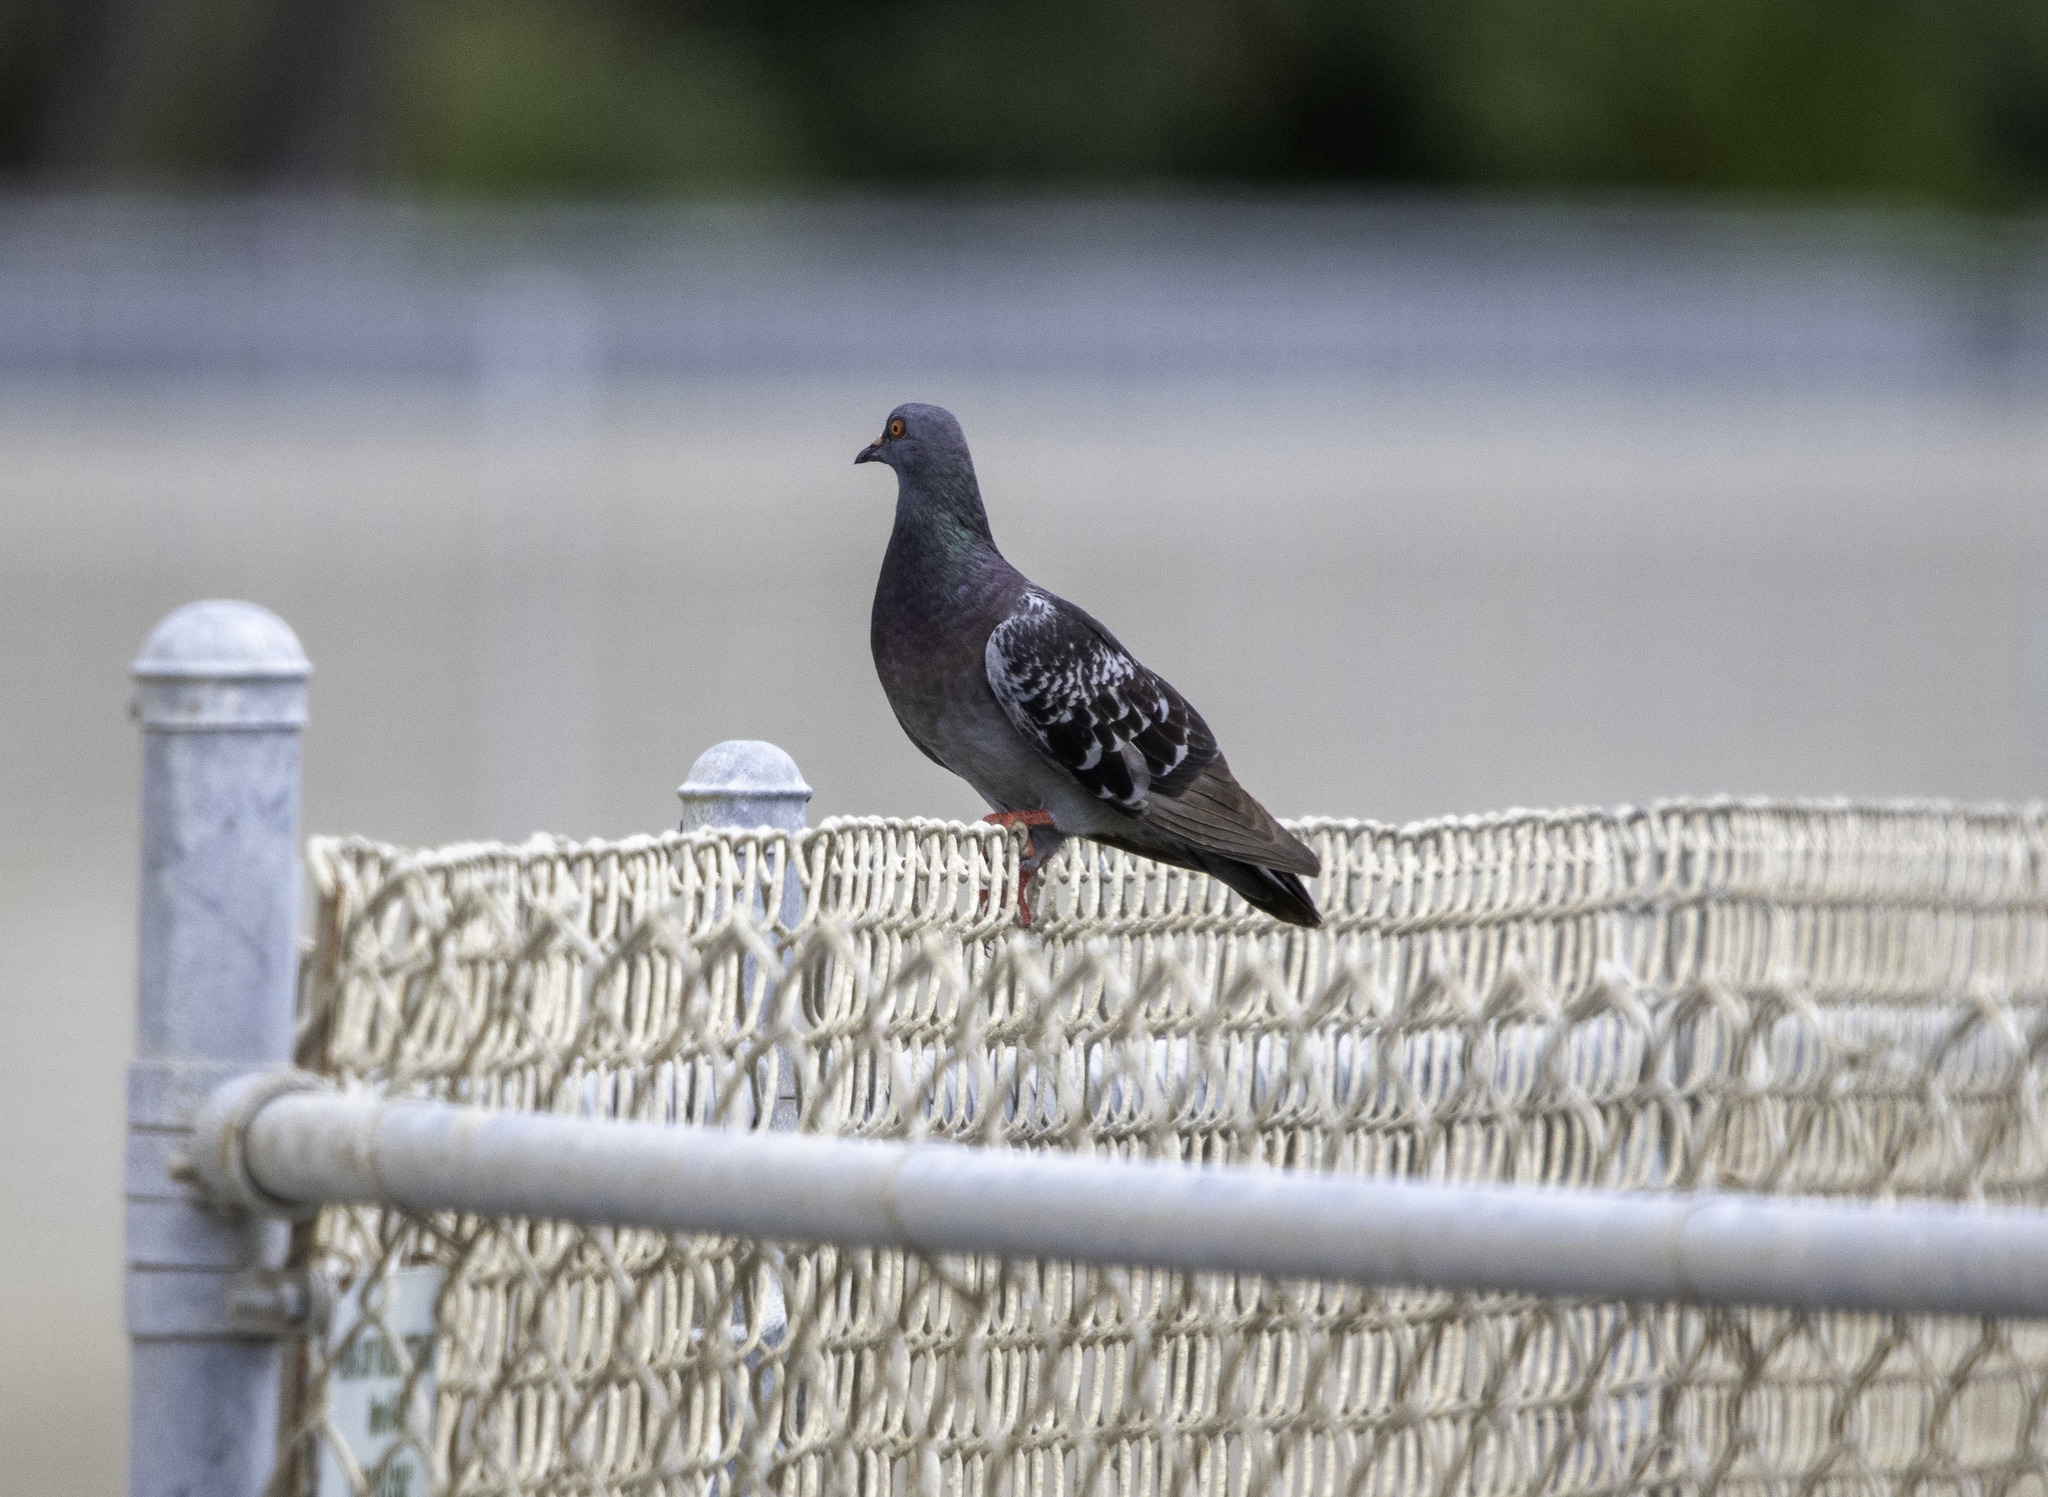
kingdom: Animalia
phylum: Chordata
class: Aves
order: Columbiformes
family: Columbidae
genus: Columba
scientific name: Columba livia
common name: Rock pigeon
